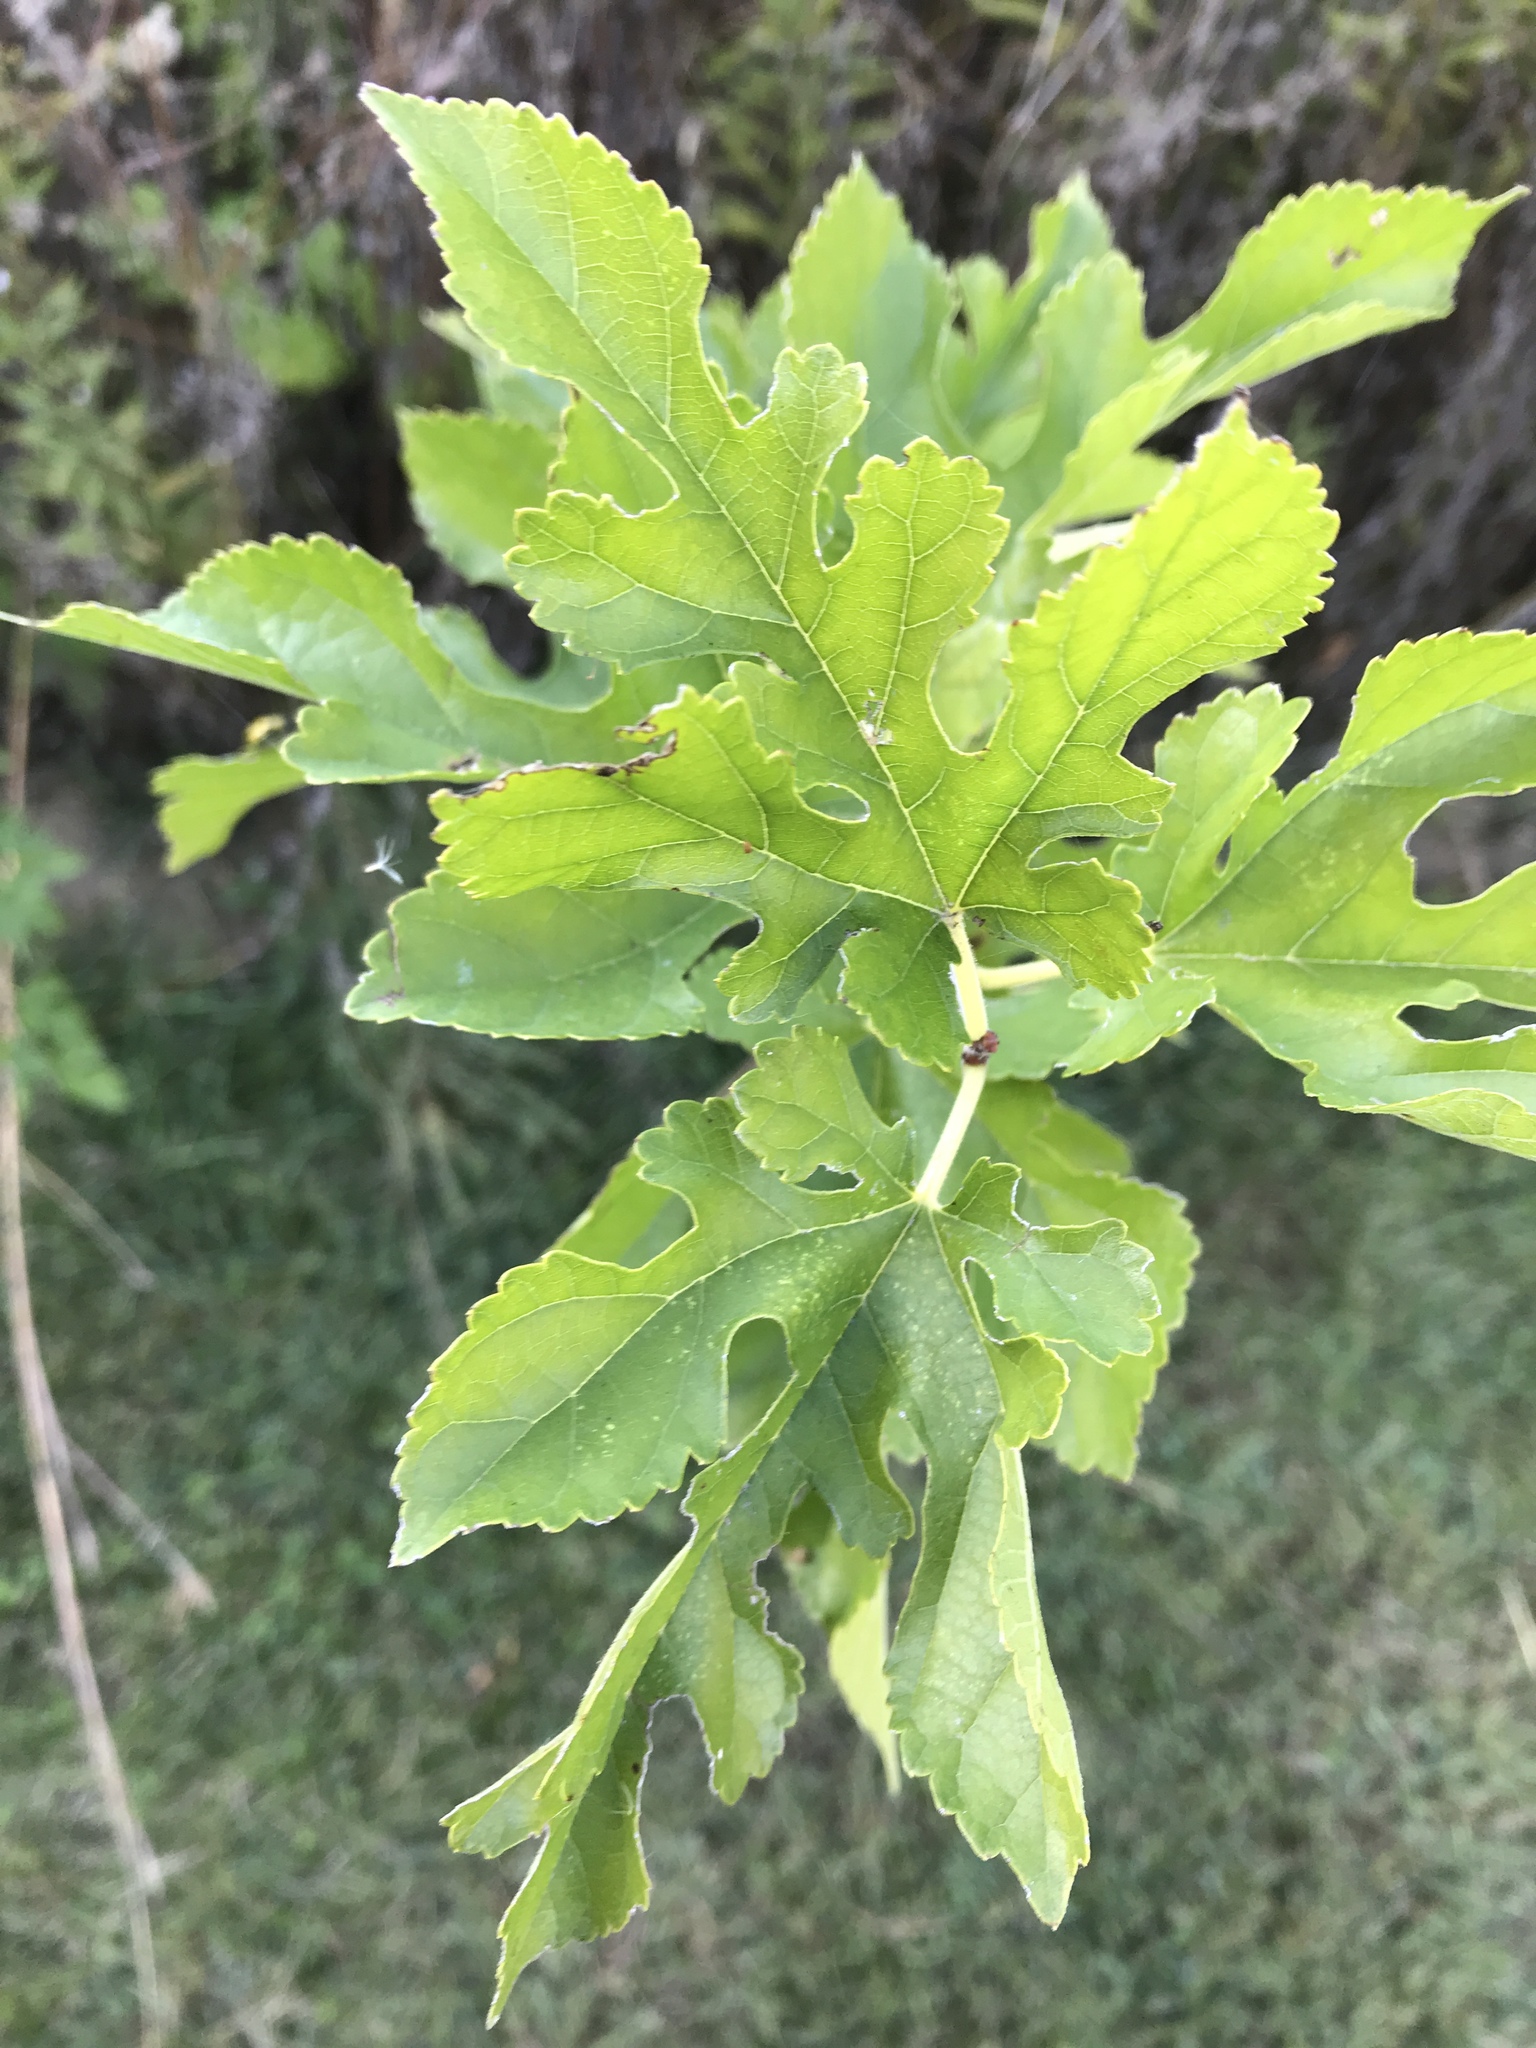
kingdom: Plantae
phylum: Tracheophyta
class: Magnoliopsida
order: Rosales
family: Moraceae
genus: Morus
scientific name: Morus alba
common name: White mulberry
